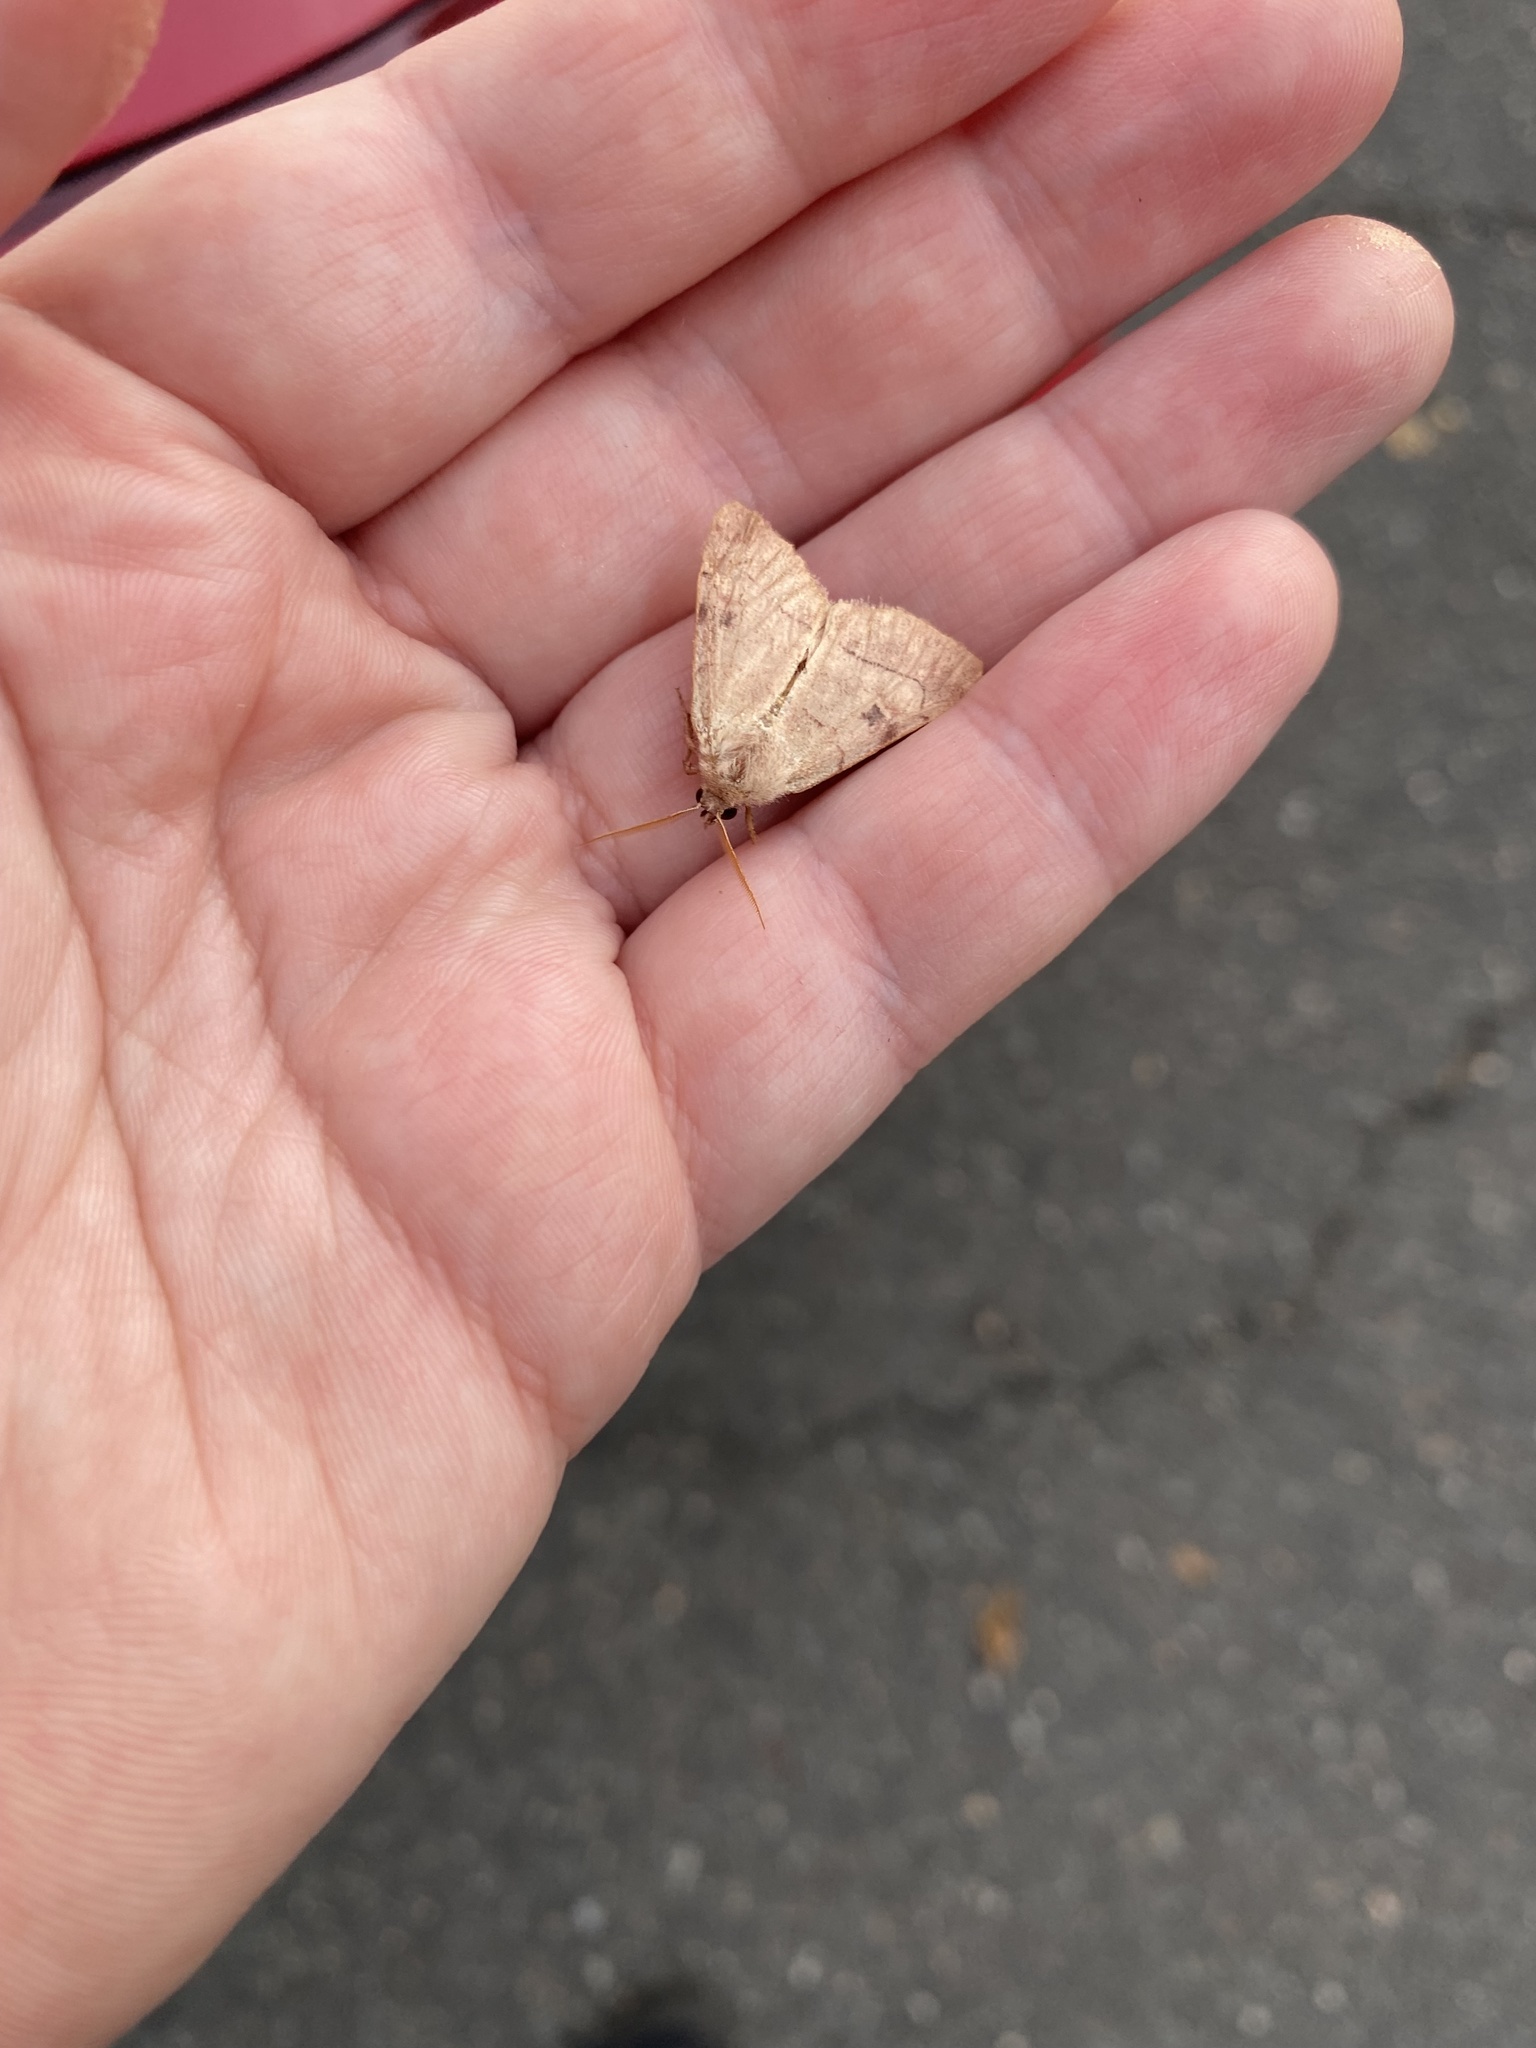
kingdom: Animalia
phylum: Arthropoda
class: Insecta
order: Lepidoptera
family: Noctuidae
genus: Choephora
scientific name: Choephora fungorum
